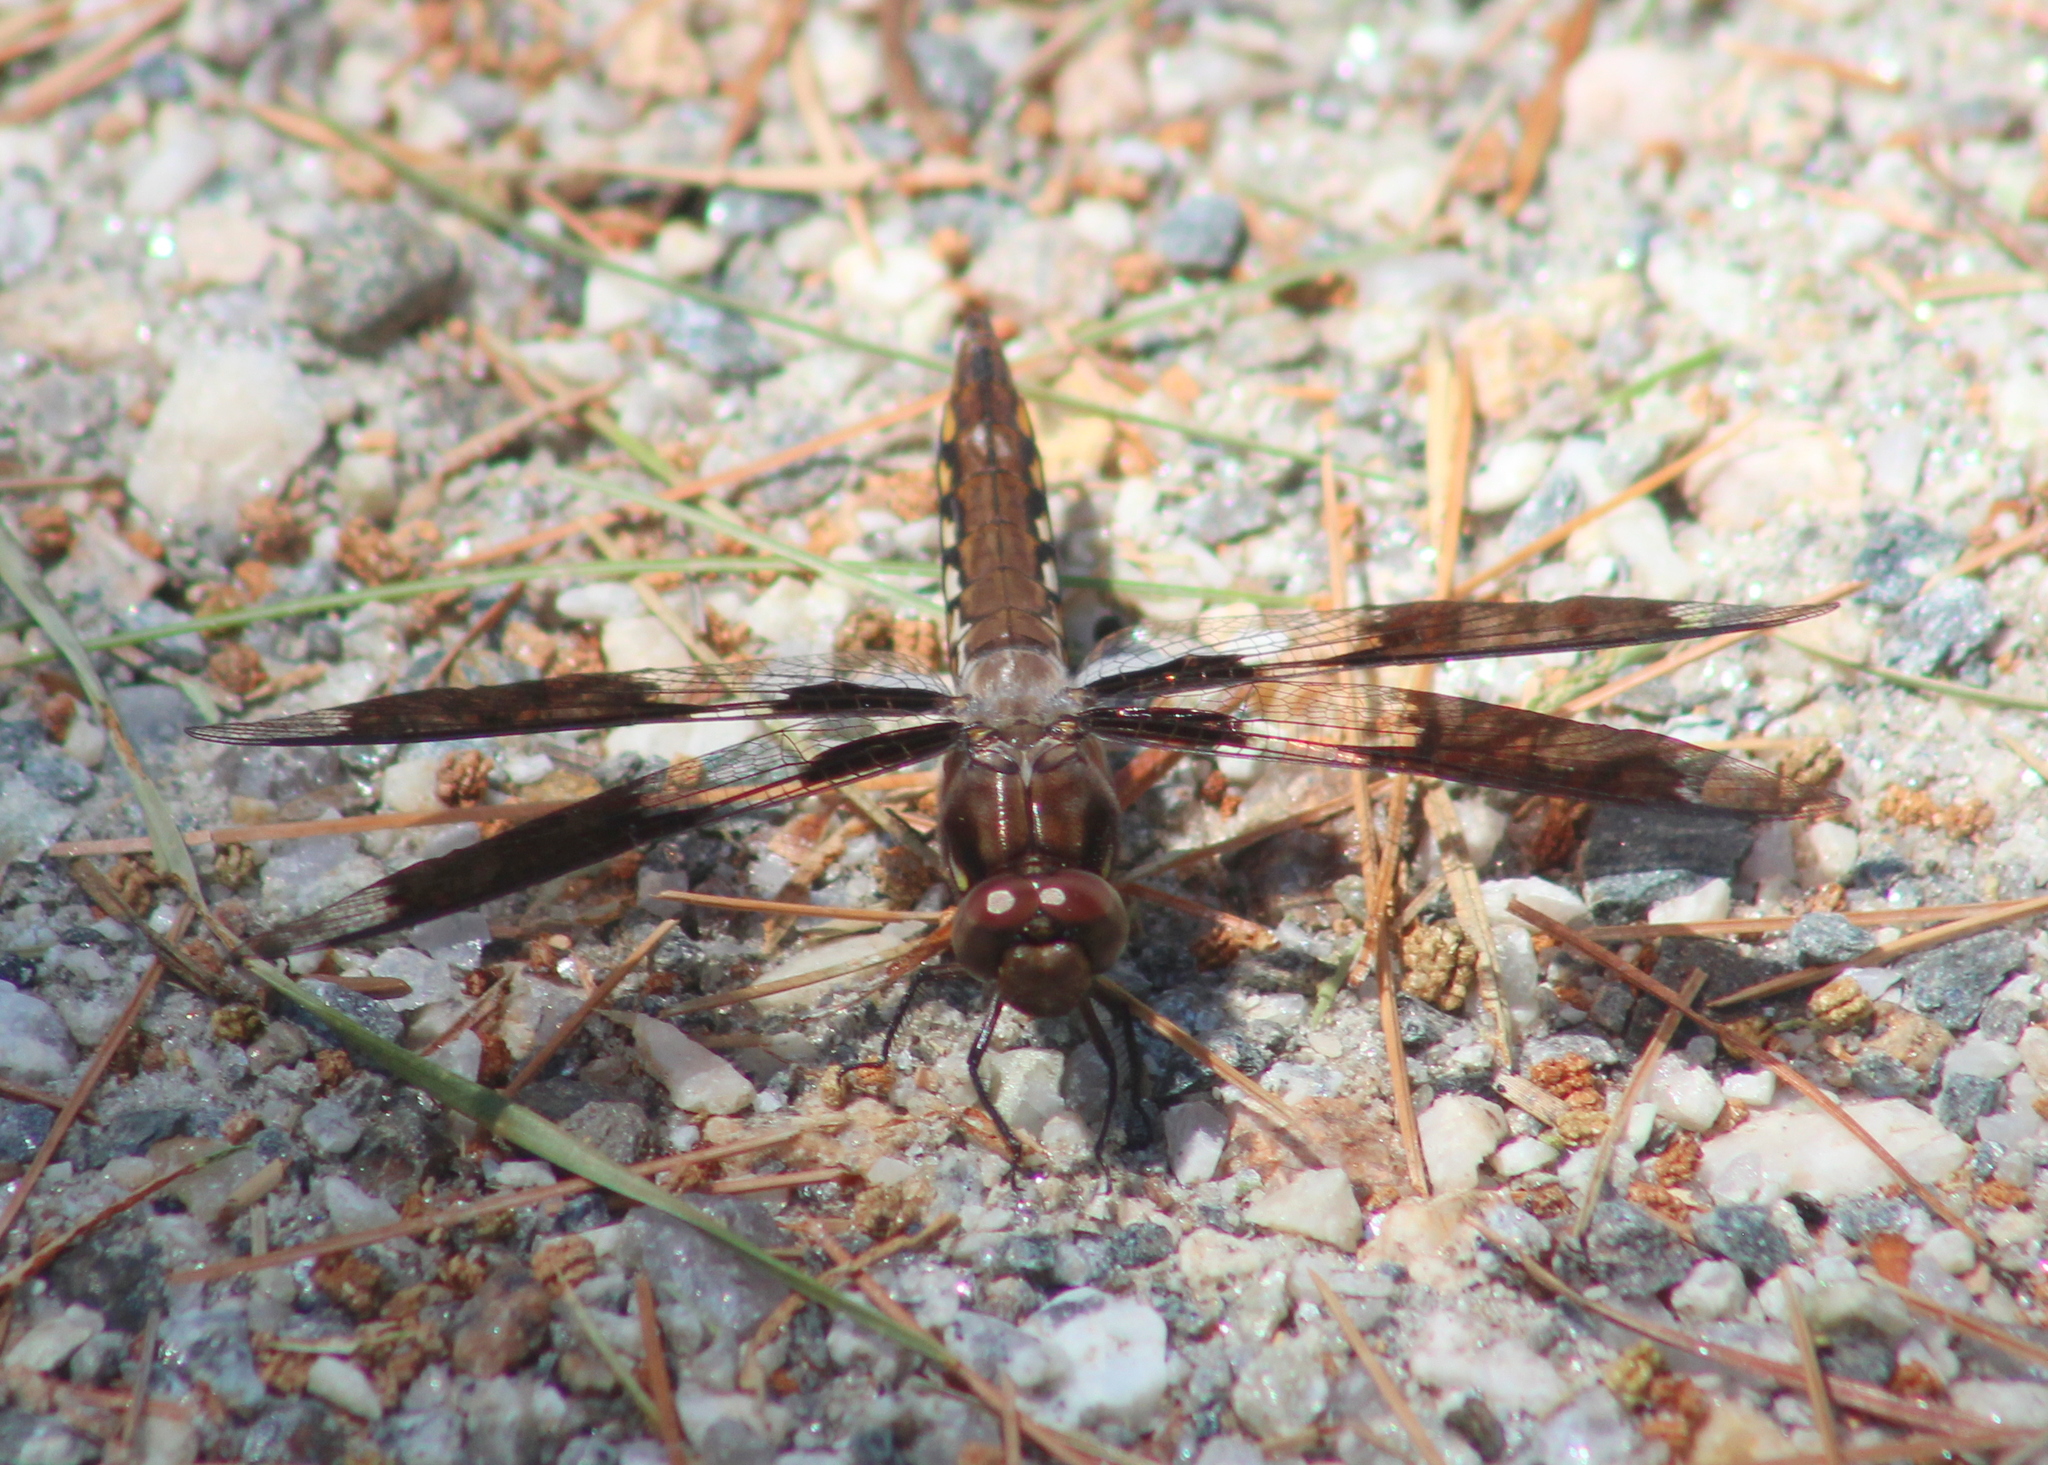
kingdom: Animalia
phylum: Arthropoda
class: Insecta
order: Odonata
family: Libellulidae
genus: Plathemis
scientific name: Plathemis lydia
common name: Common whitetail
